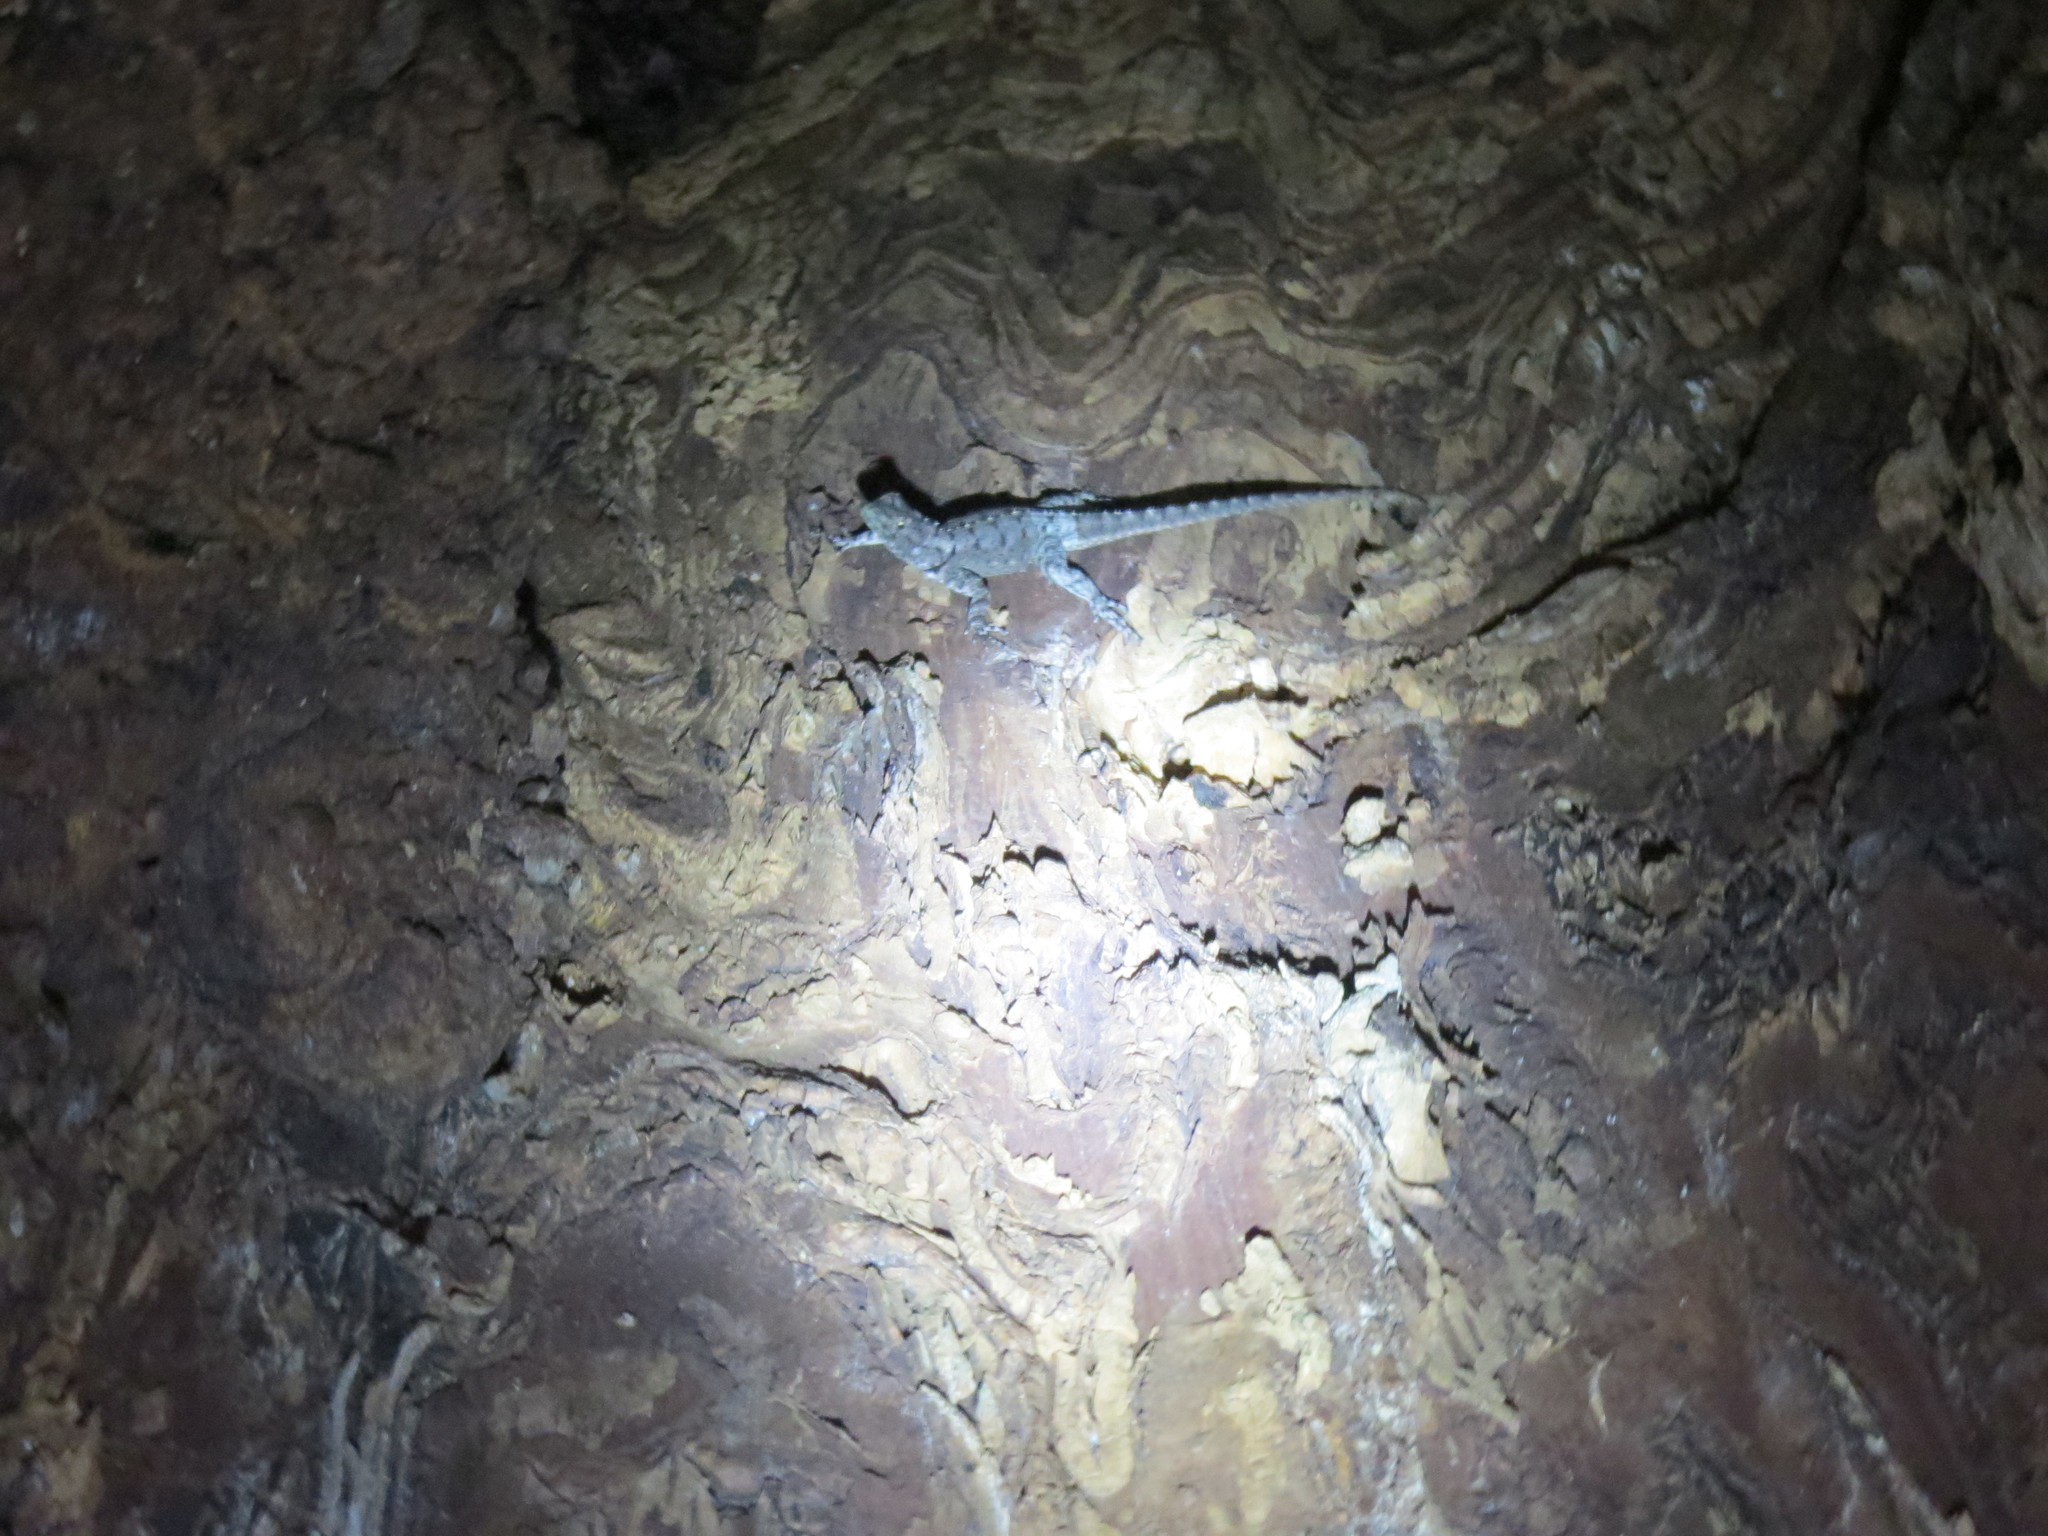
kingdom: Animalia
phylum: Chordata
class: Squamata
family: Tropiduridae
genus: Tropidurus
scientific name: Tropidurus spinulosus
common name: Spiny lava lizard
